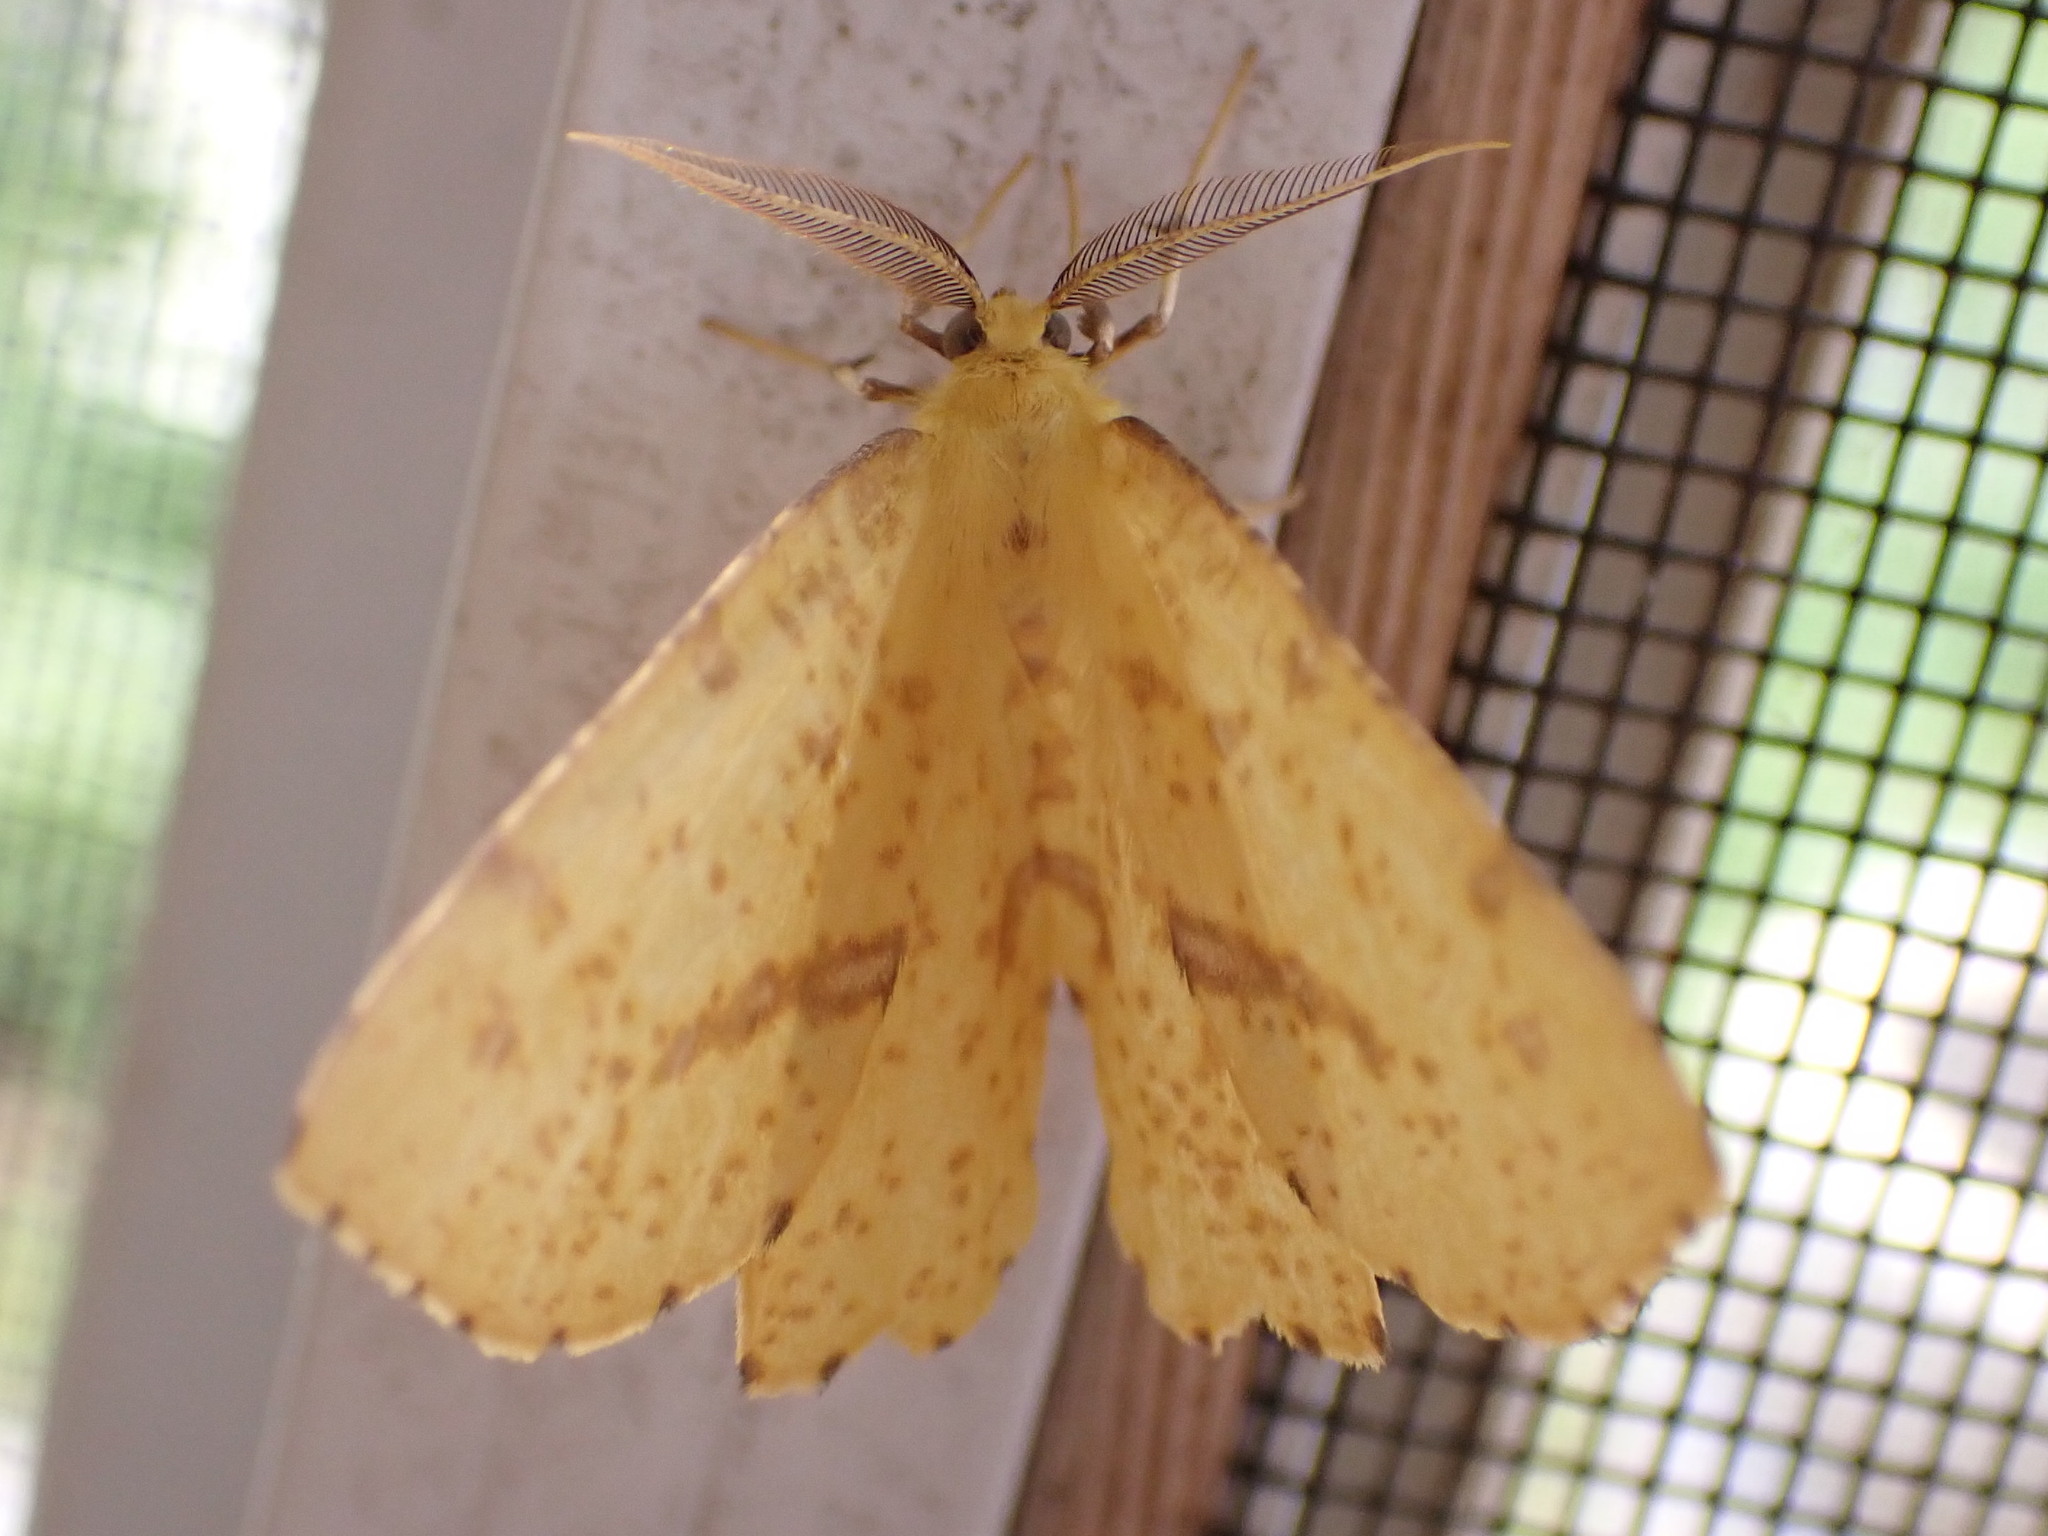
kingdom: Animalia
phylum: Arthropoda
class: Insecta
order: Lepidoptera
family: Geometridae
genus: Xanthotype
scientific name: Xanthotype
